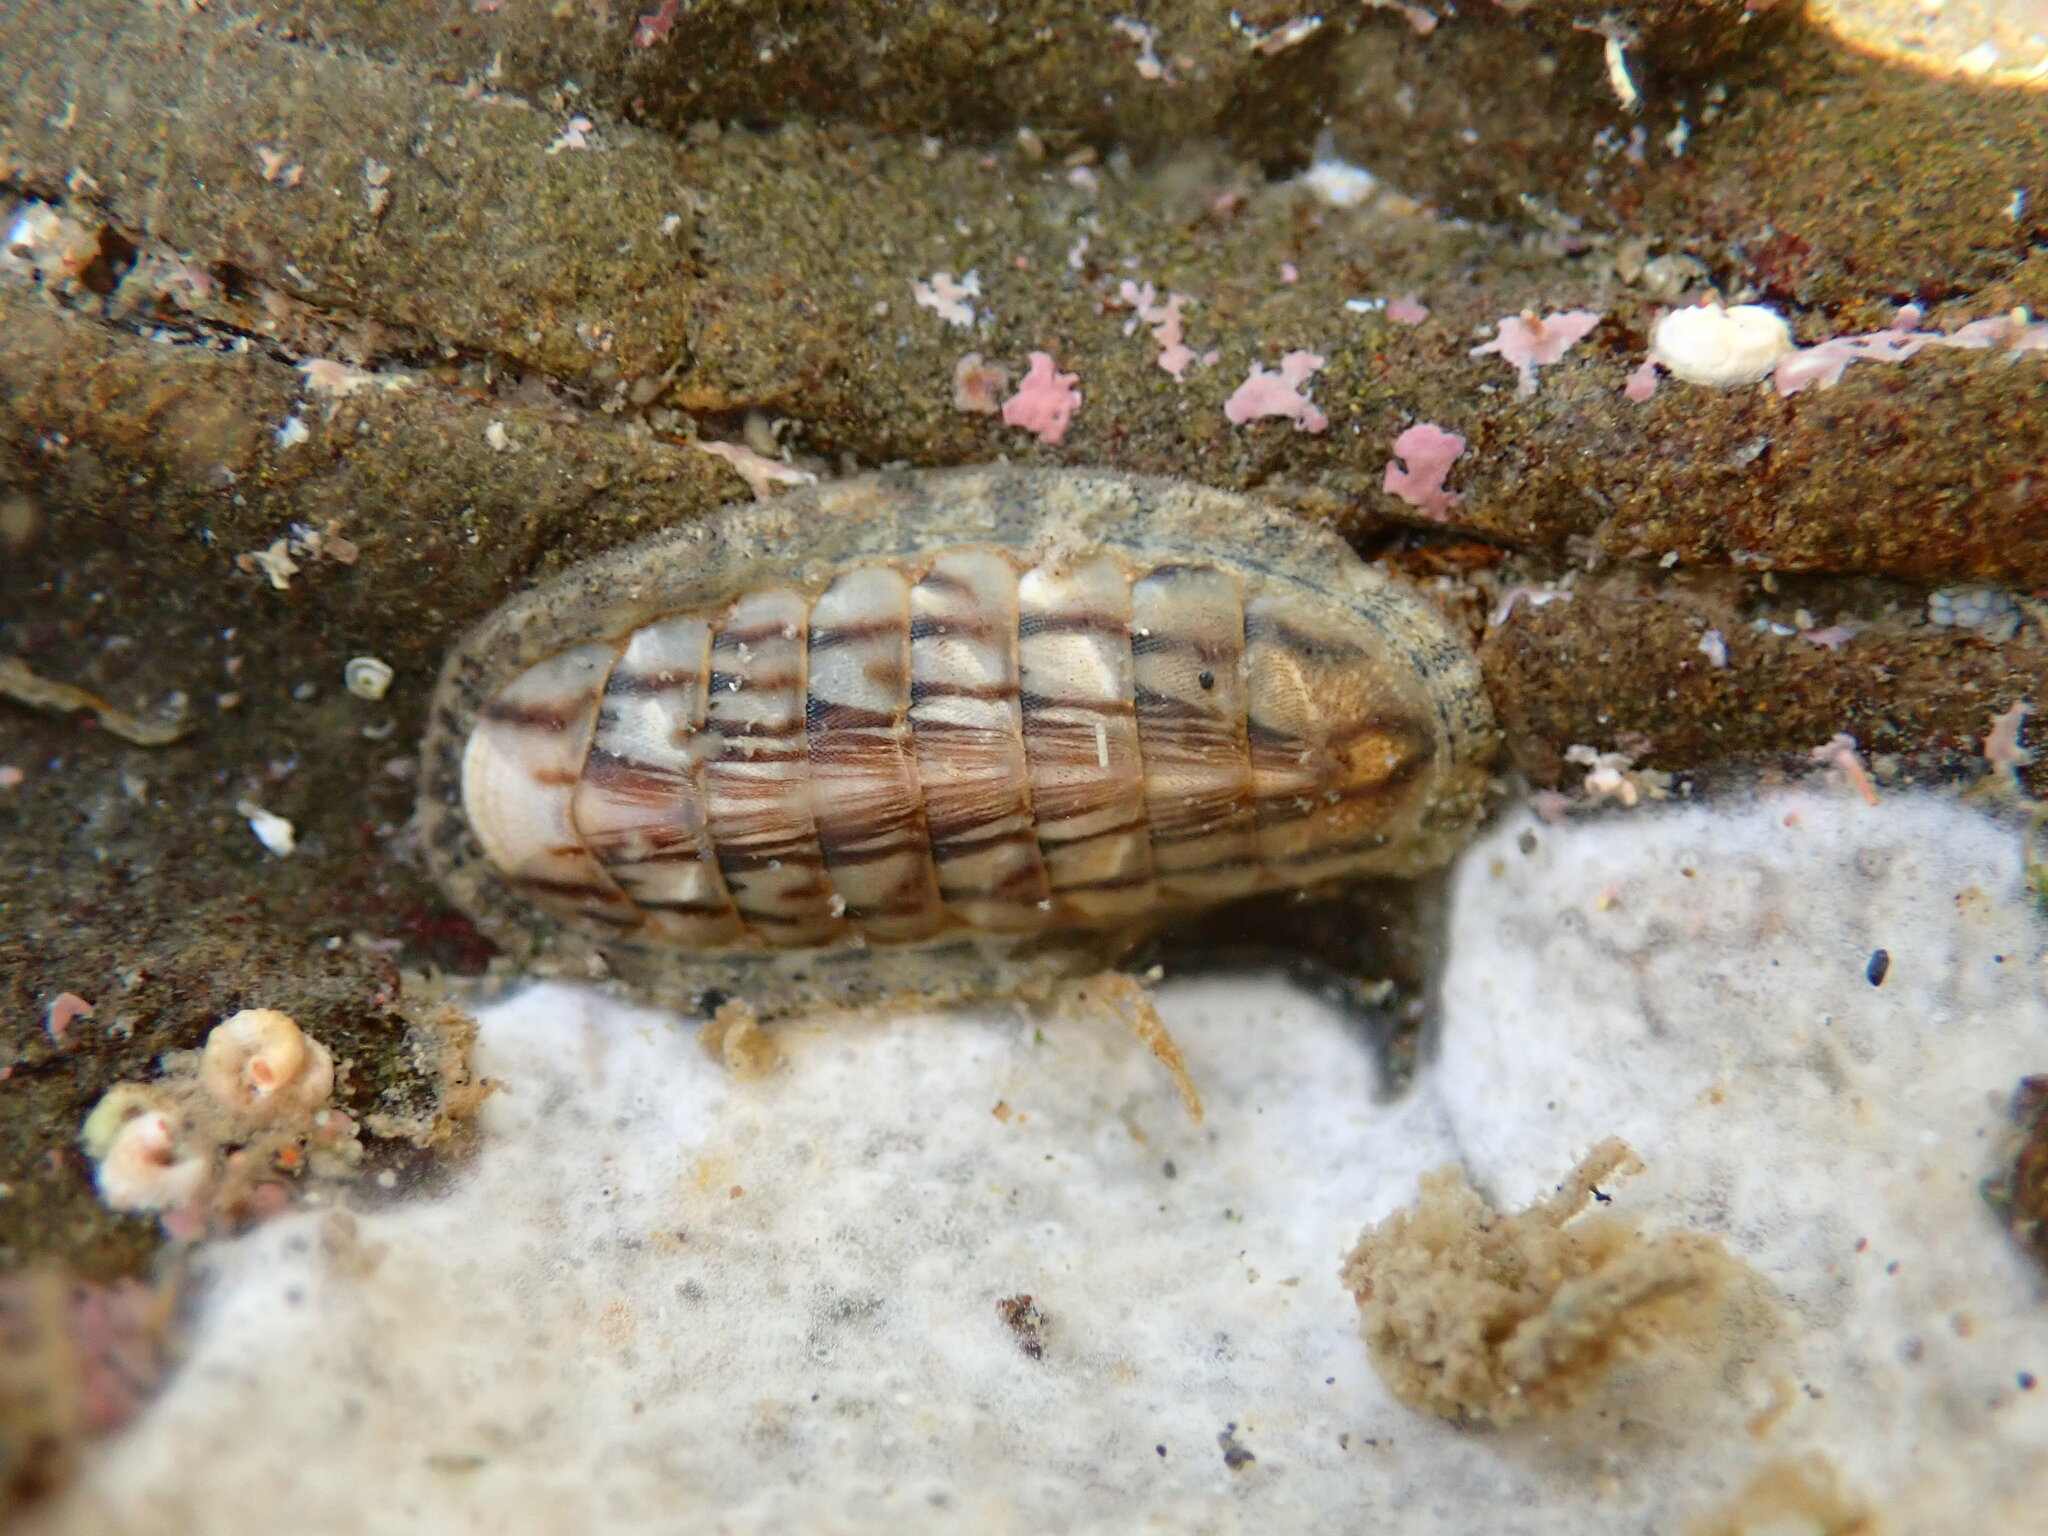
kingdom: Animalia
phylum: Mollusca
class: Polyplacophora
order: Chitonida
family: Ischnochitonidae
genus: Ischnochiton
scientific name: Ischnochiton maorianus
